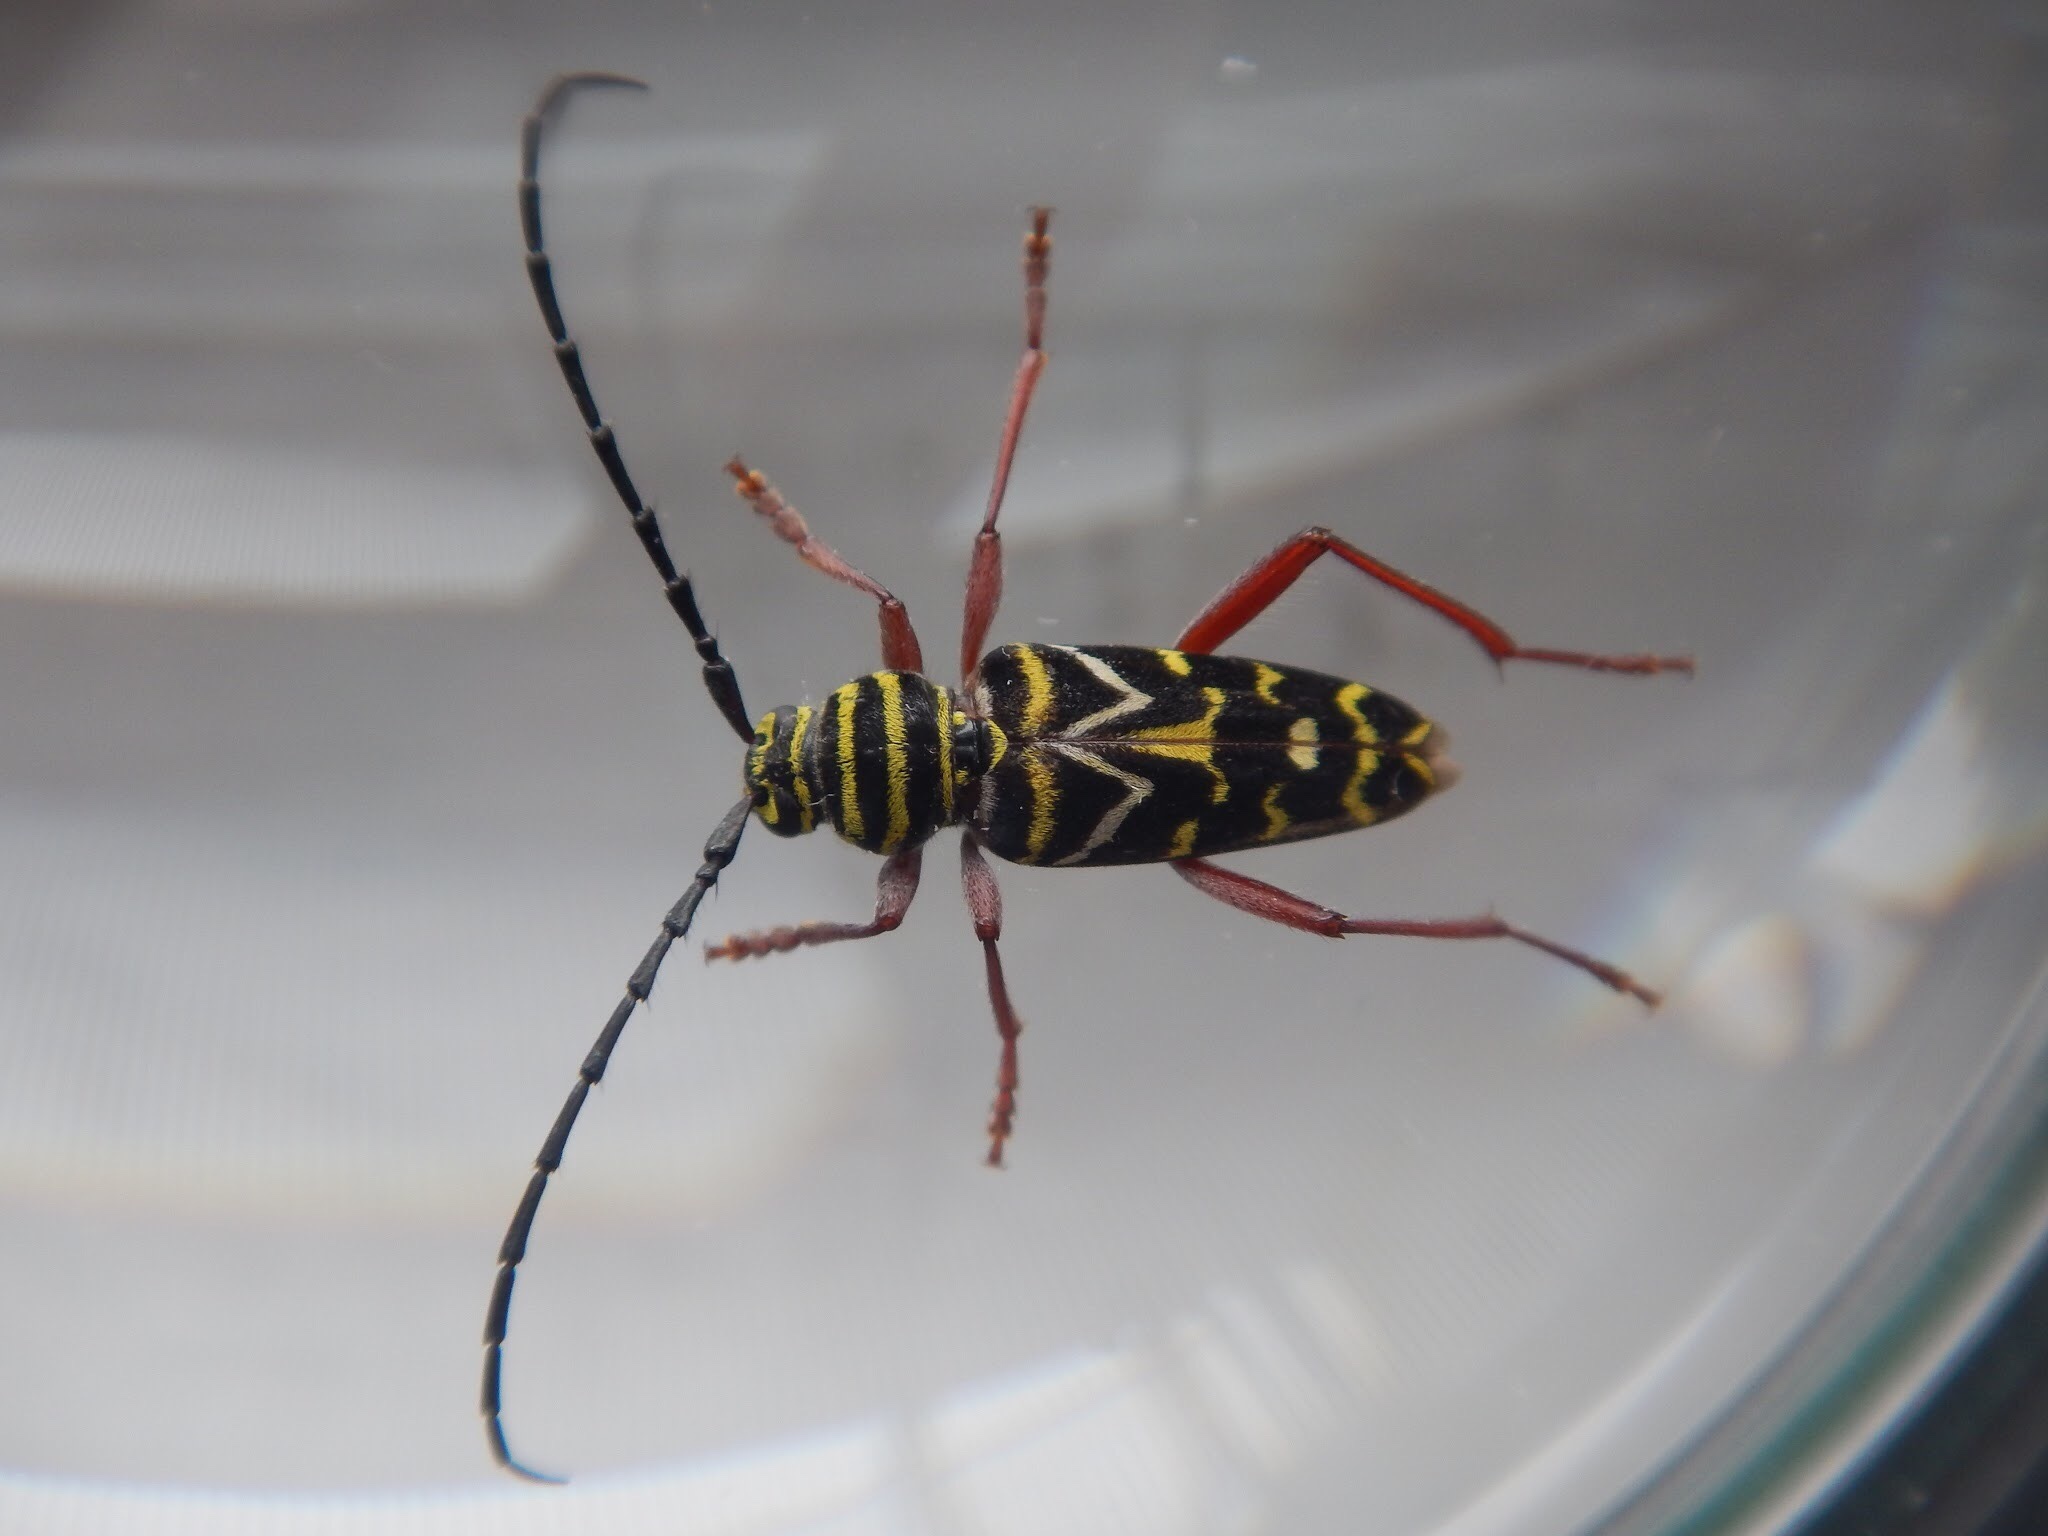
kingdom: Animalia
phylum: Arthropoda
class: Insecta
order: Coleoptera
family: Cerambycidae
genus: Megacyllene
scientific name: Megacyllene caryae
